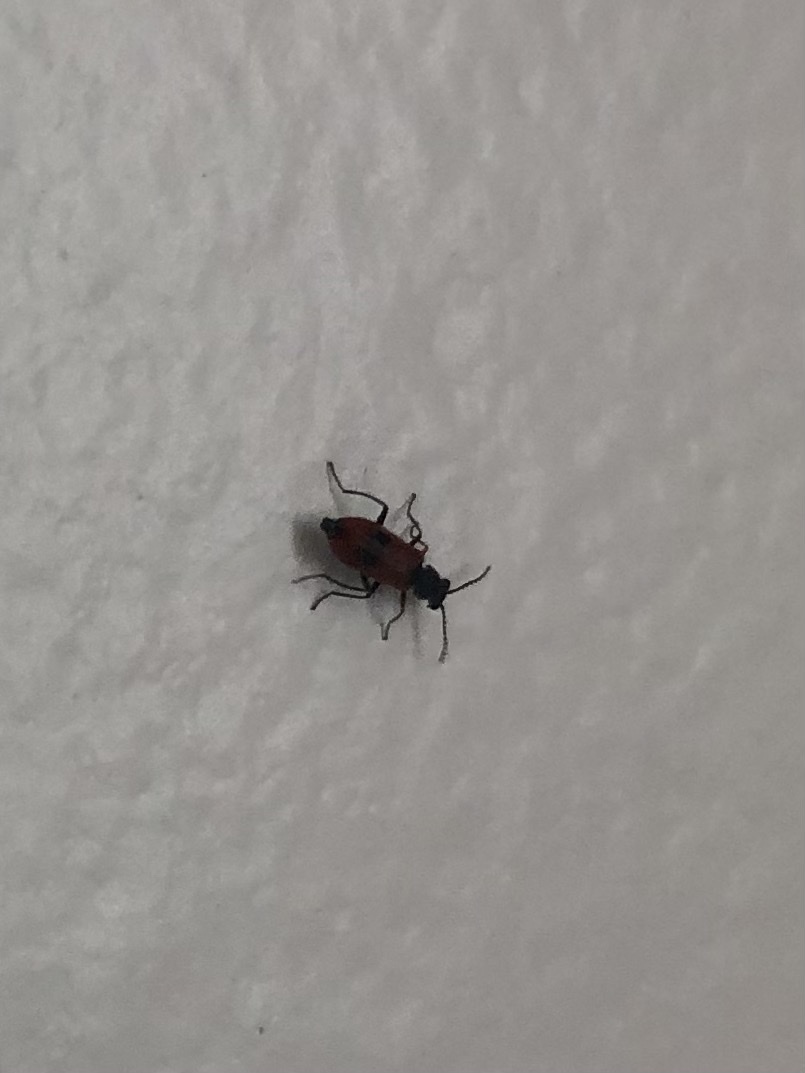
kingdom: Animalia
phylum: Arthropoda
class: Insecta
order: Coleoptera
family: Melyridae
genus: Anthocomus
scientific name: Anthocomus equestris
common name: Black-banded soft-winged flower beetle
